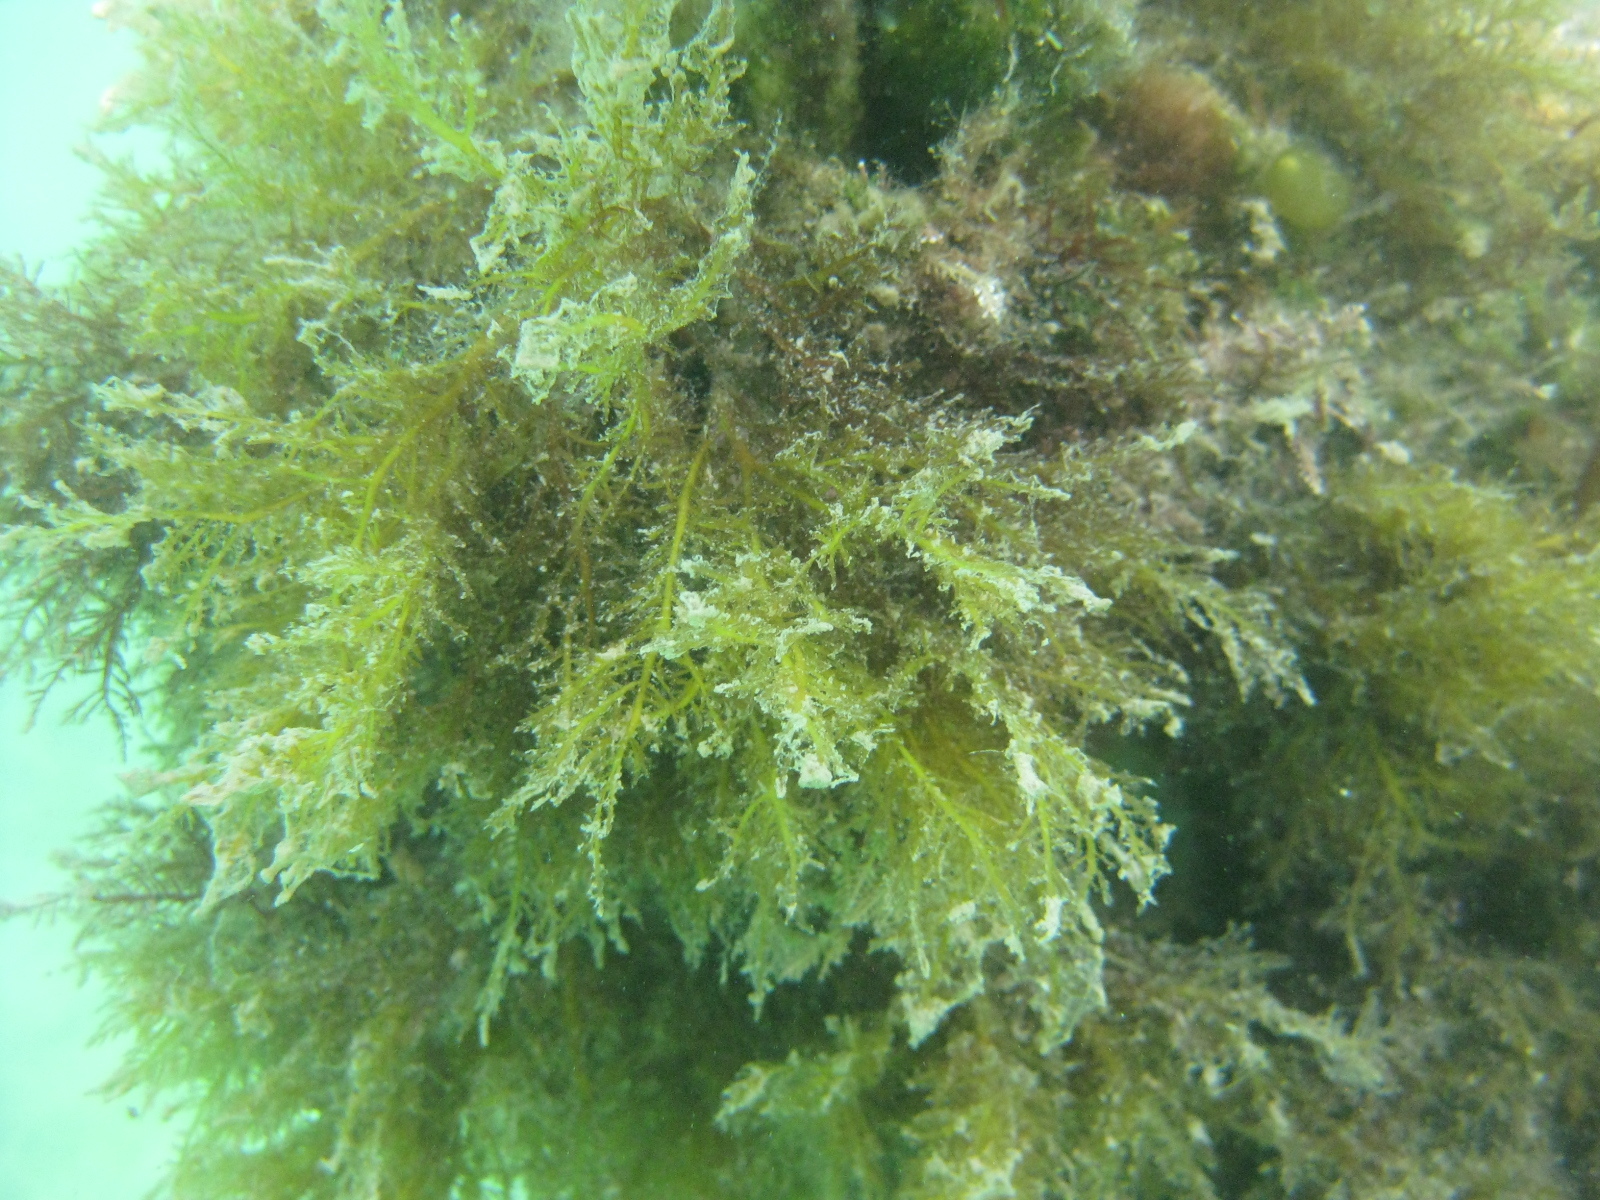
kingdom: Plantae
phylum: Rhodophyta
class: Florideophyceae
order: Gelidiales
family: Pterocladiaceae
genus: Pterocladiella
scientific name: Pterocladiella capillacea
